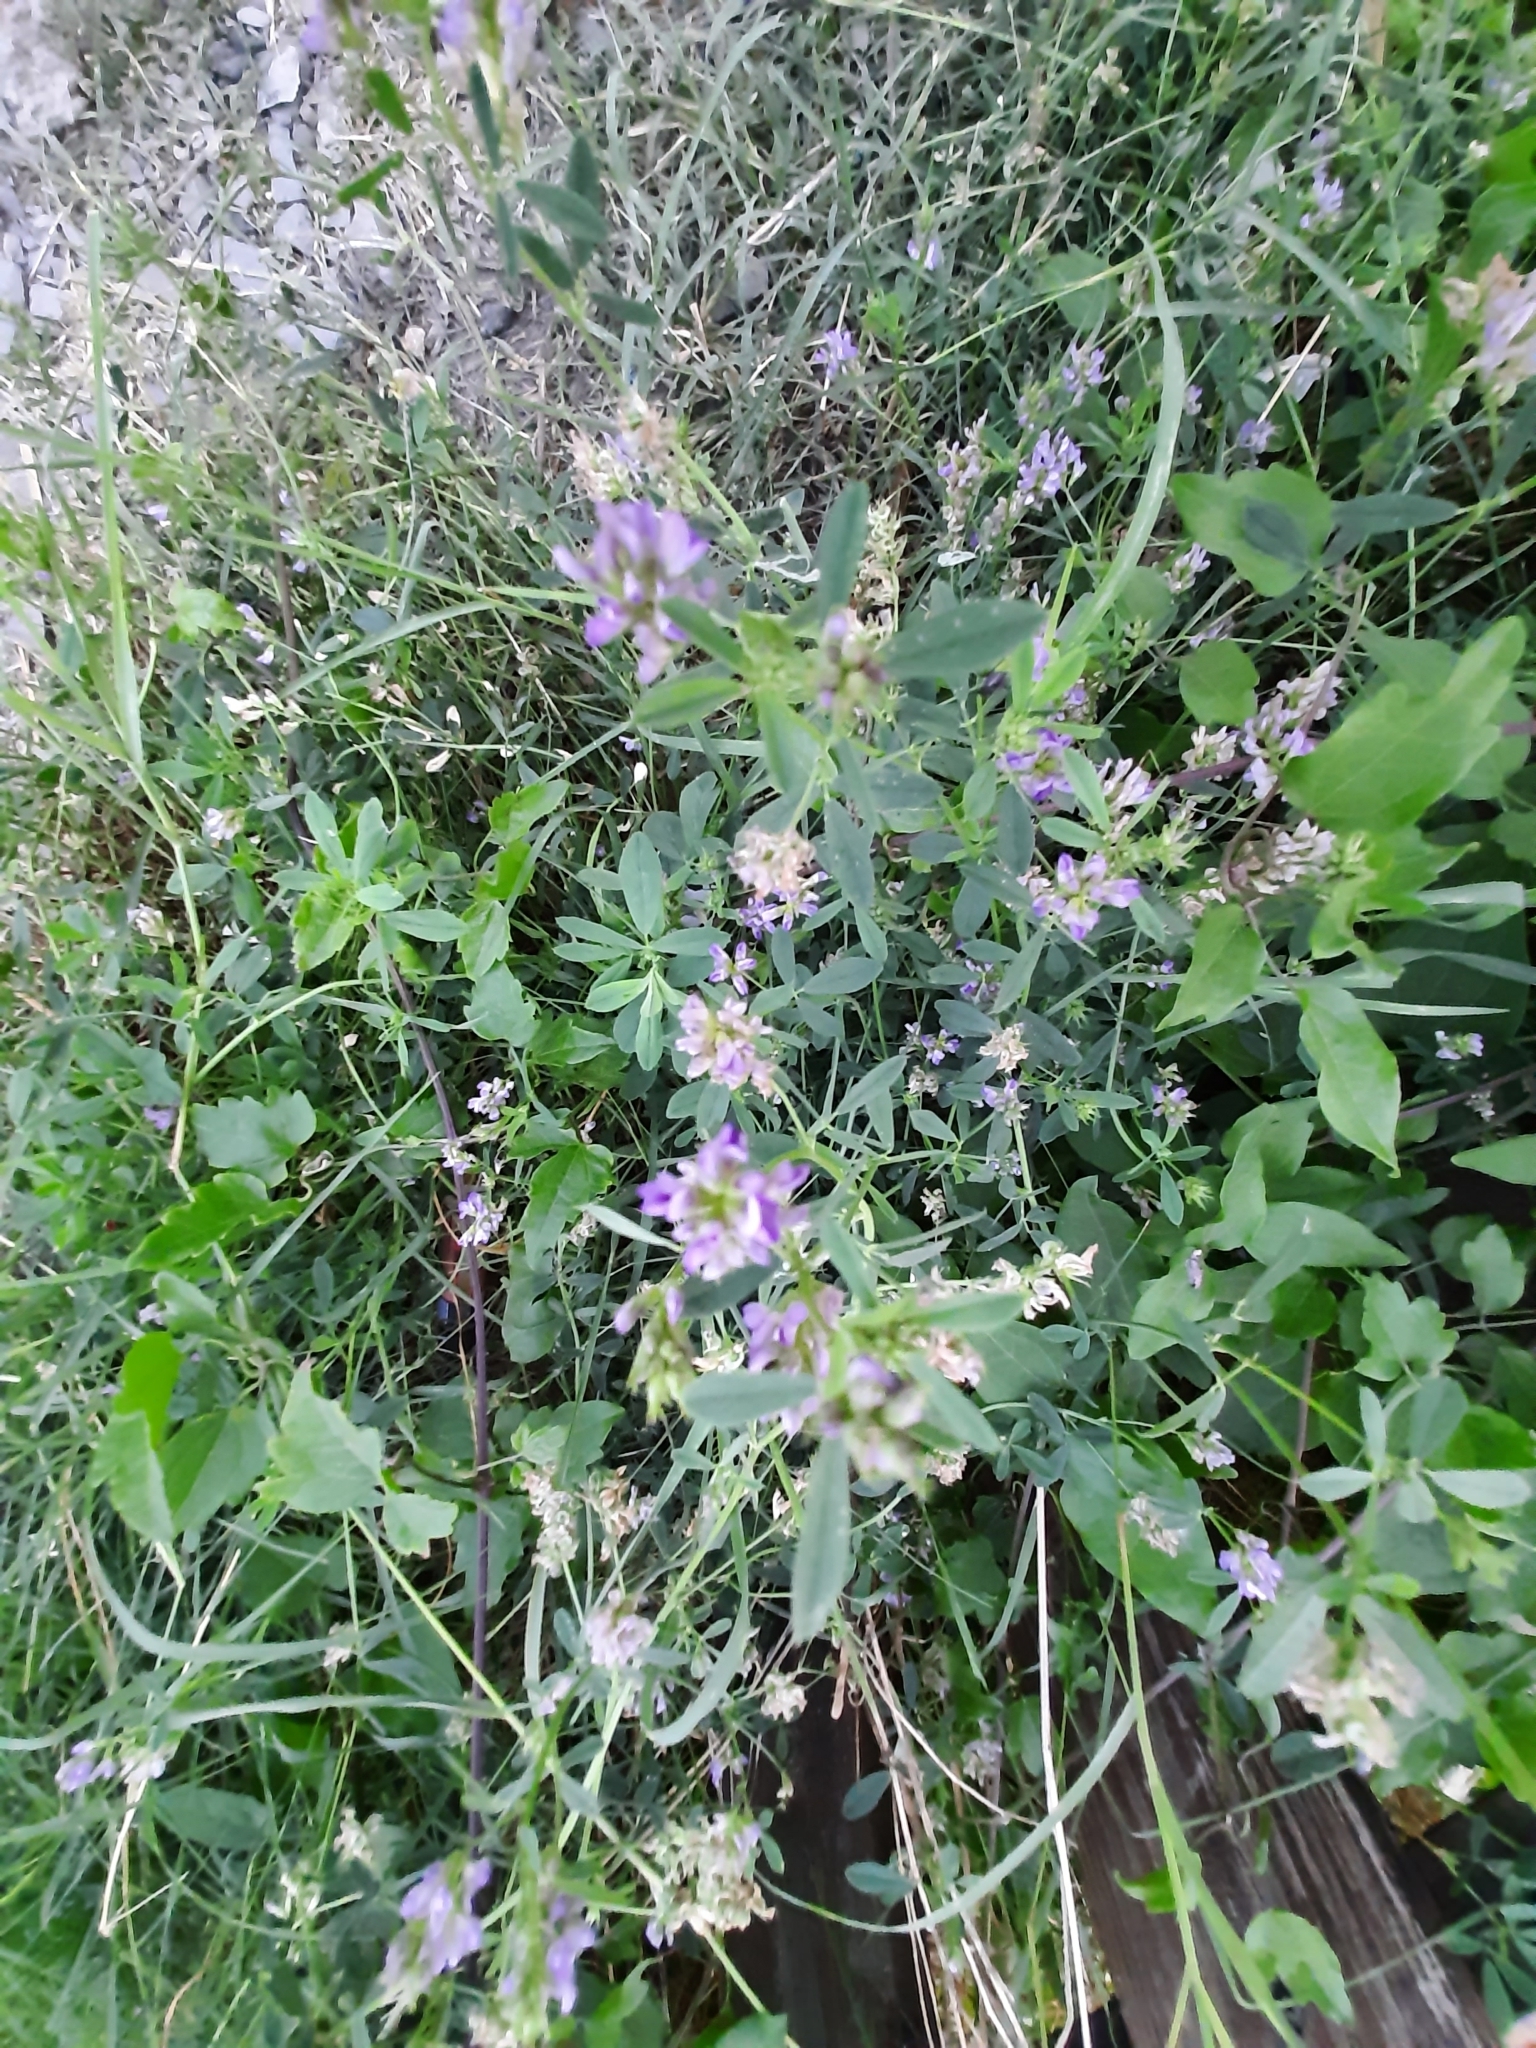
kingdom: Plantae
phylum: Tracheophyta
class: Magnoliopsida
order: Fabales
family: Fabaceae
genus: Medicago
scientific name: Medicago sativa
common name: Alfalfa
